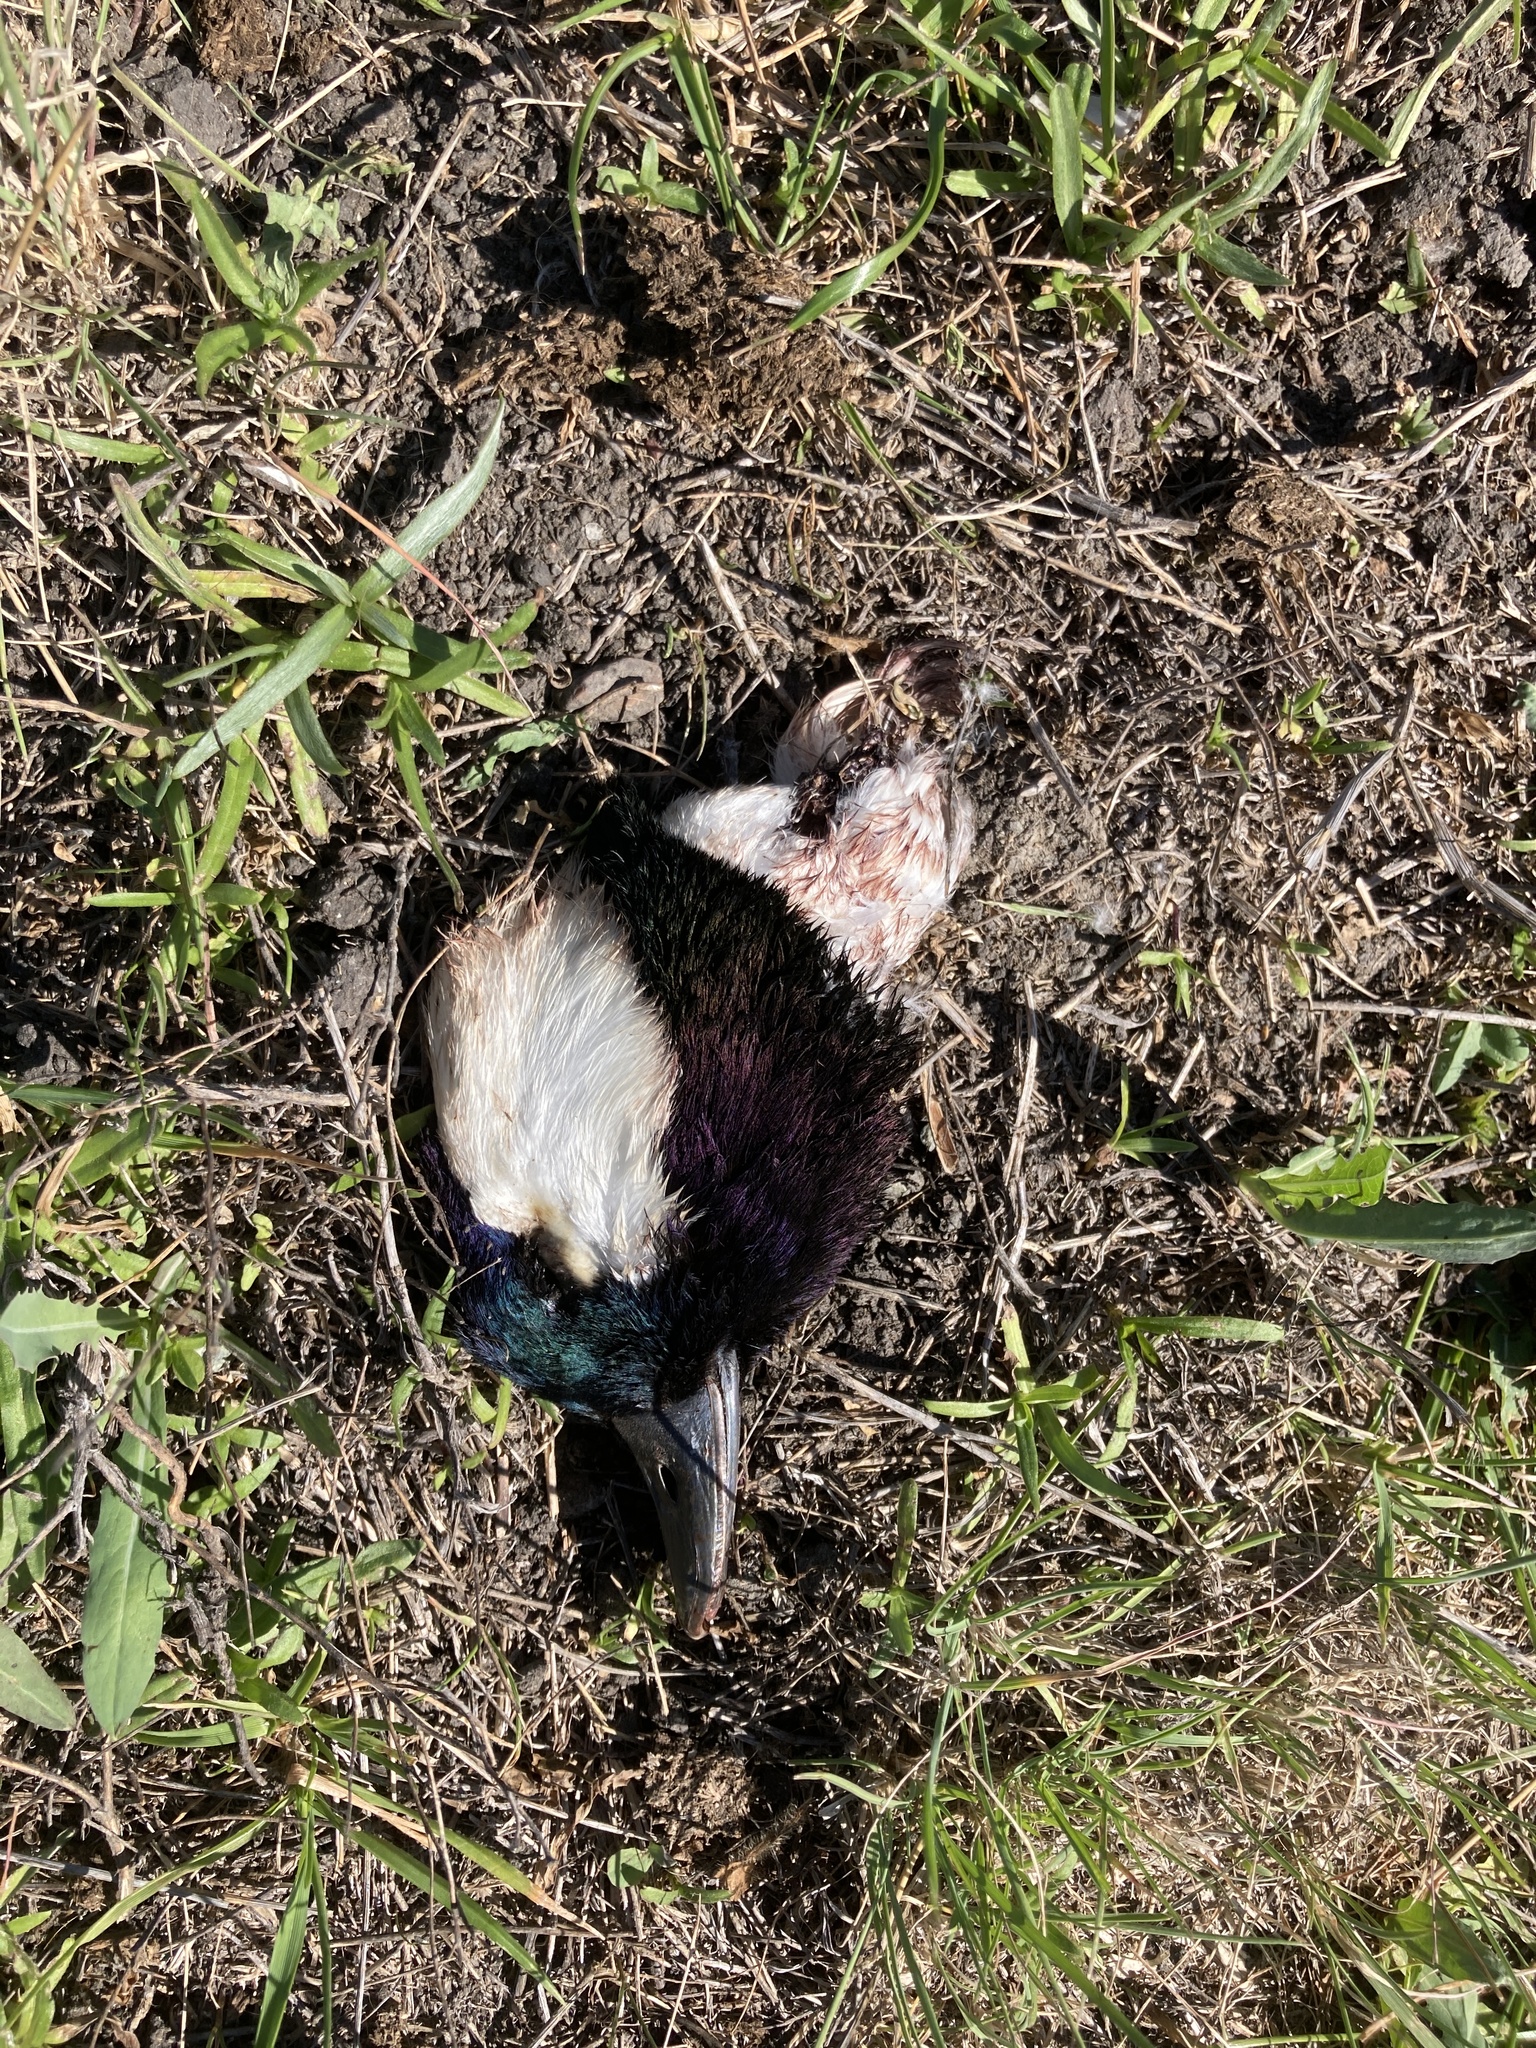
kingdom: Animalia
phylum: Chordata
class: Aves
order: Anseriformes
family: Anatidae
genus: Bucephala
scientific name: Bucephala albeola
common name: Bufflehead
